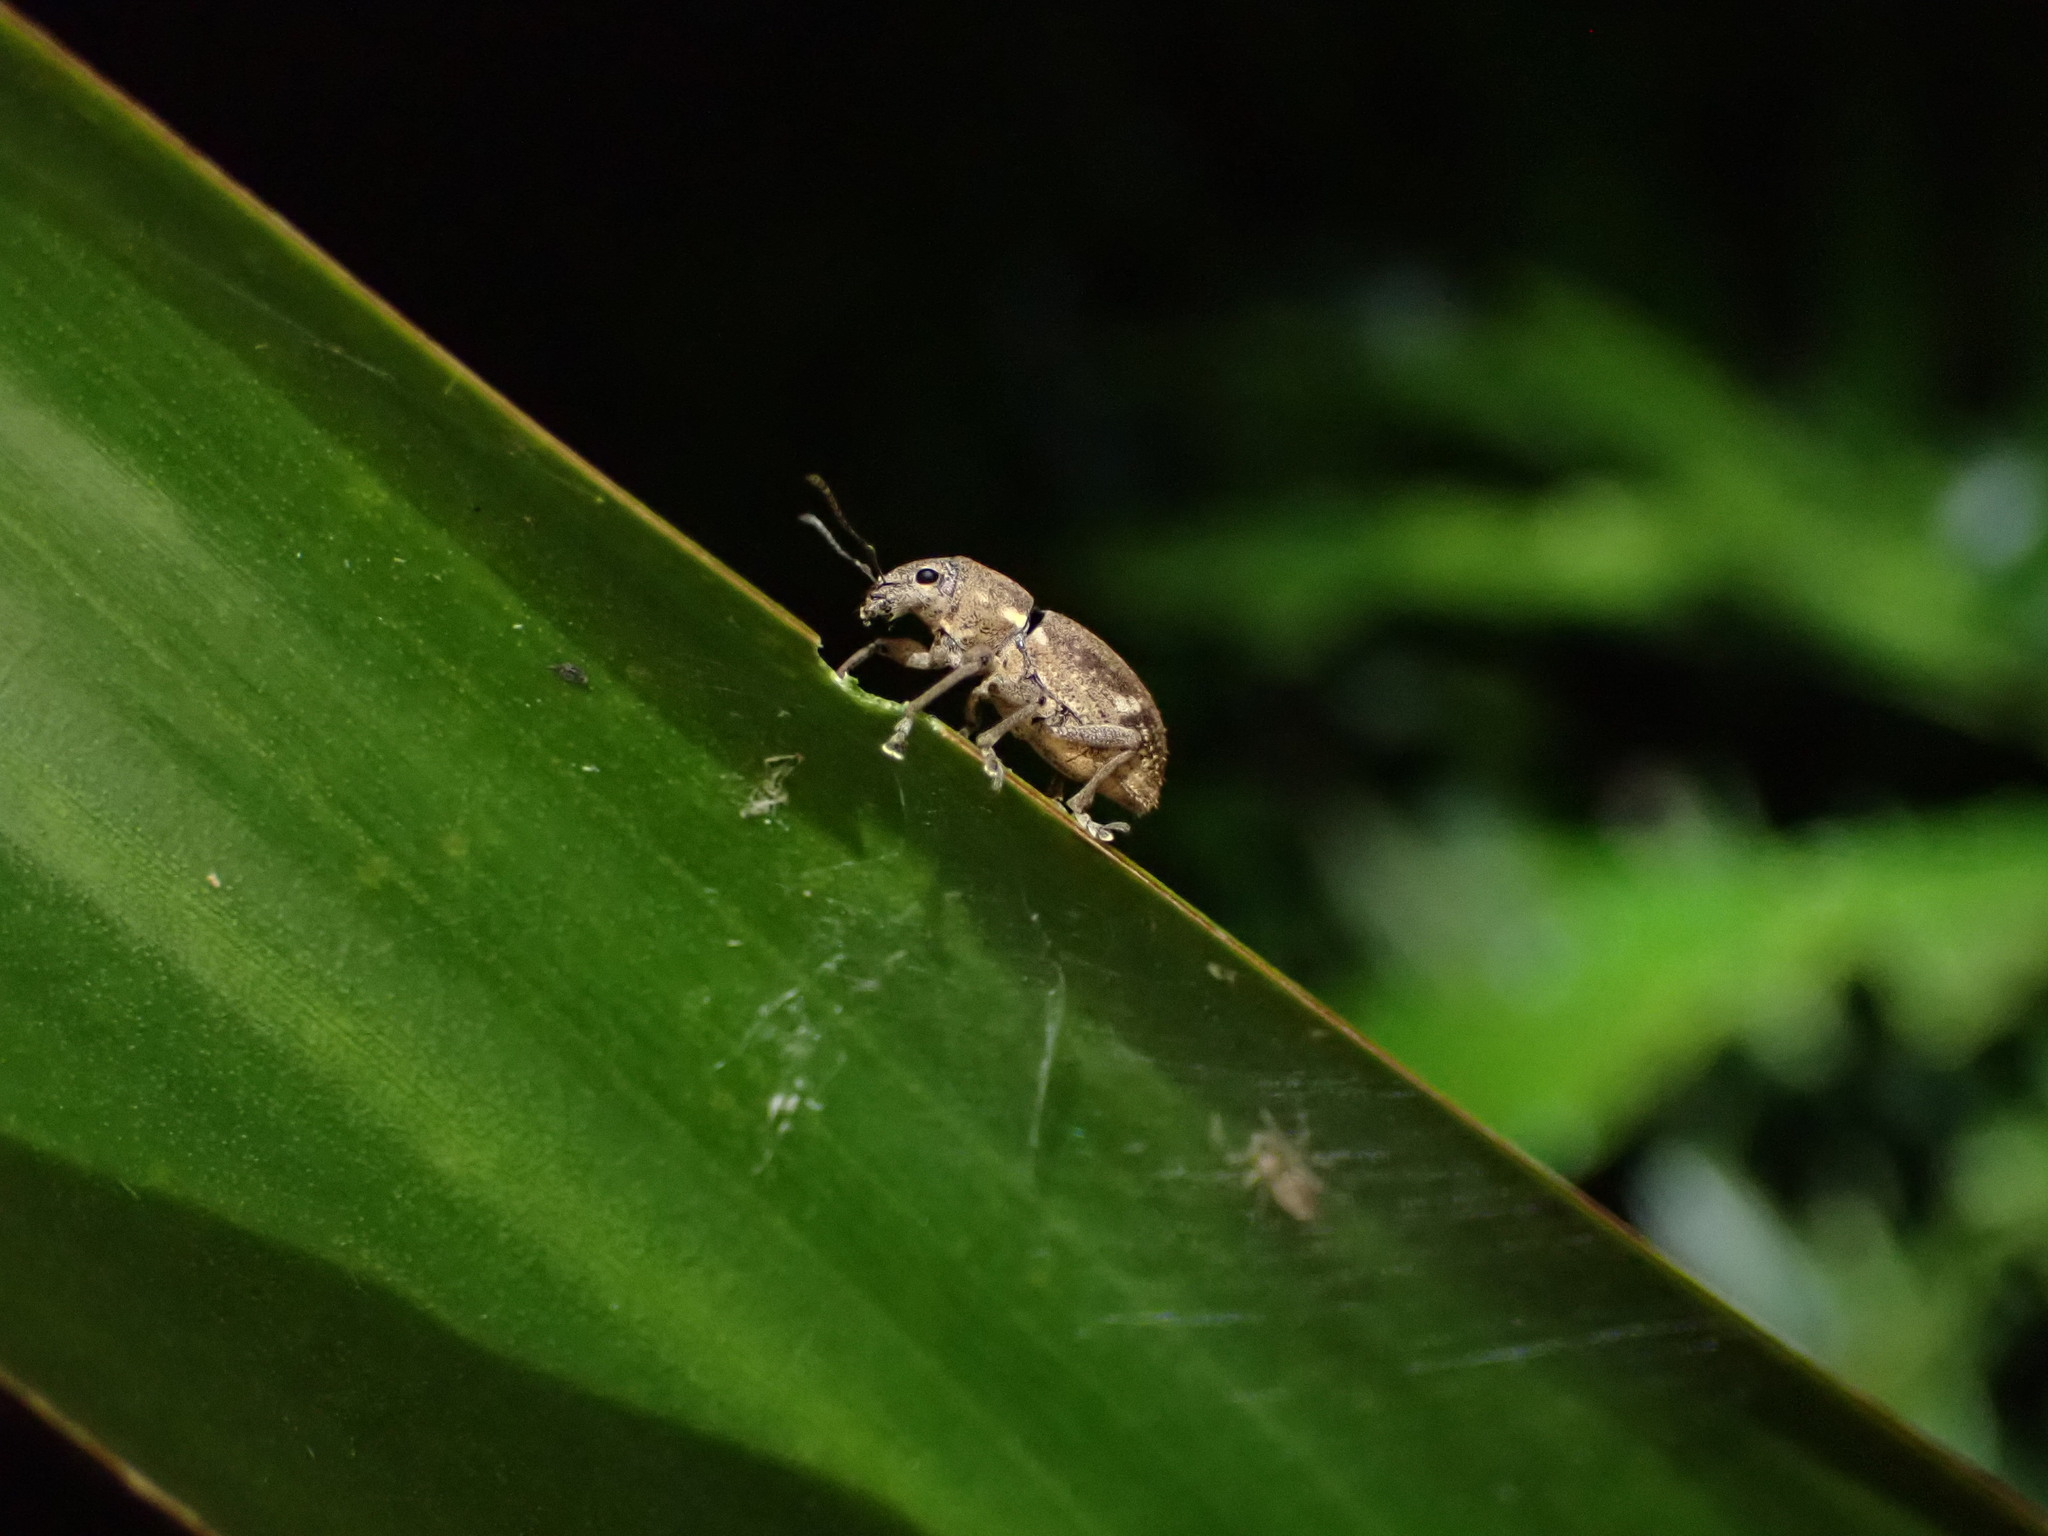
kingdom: Animalia
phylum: Arthropoda
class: Insecta
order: Coleoptera
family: Curculionidae
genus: Naupactus
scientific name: Naupactus cervinus
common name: Fuller rose beetle
